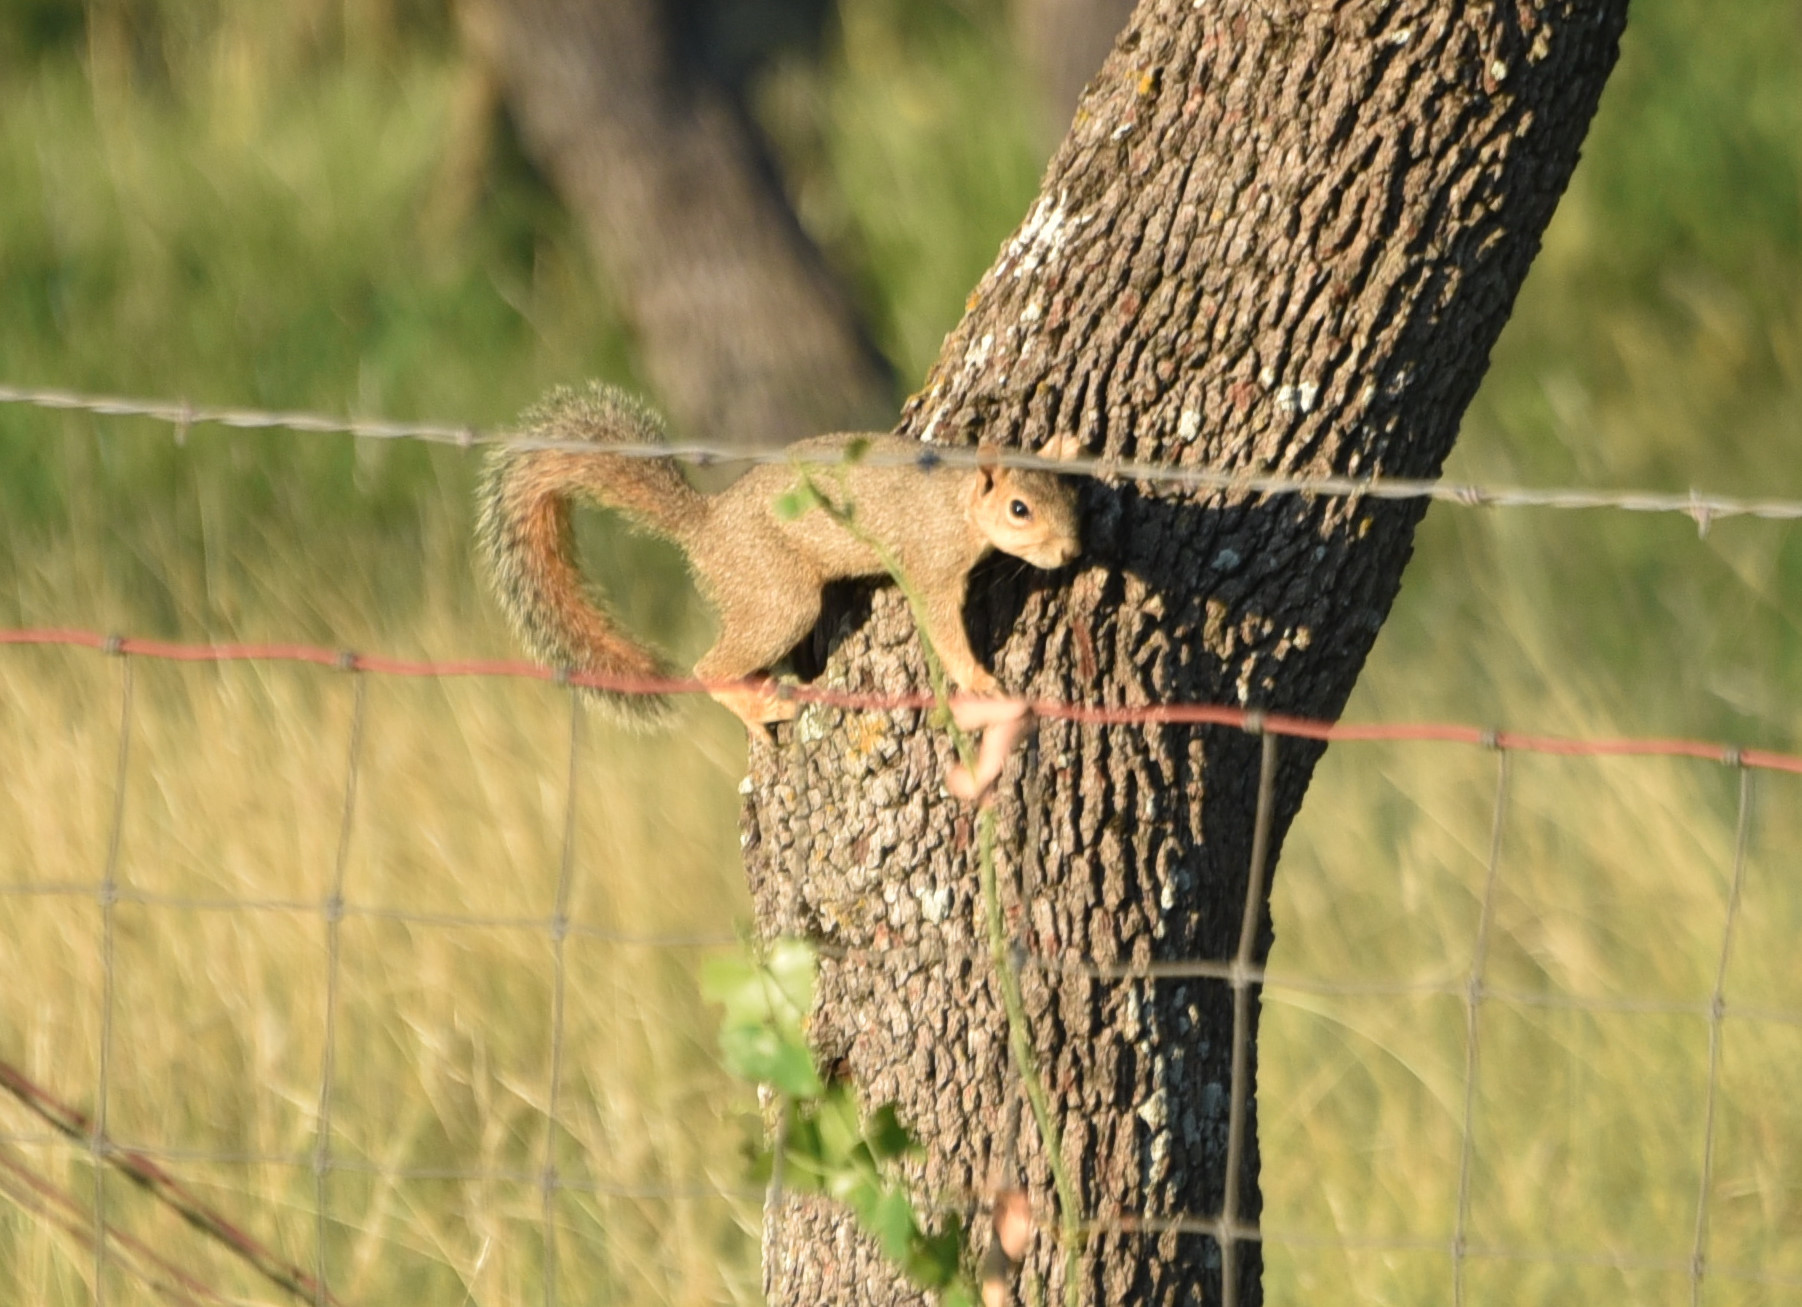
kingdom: Animalia
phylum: Chordata
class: Mammalia
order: Rodentia
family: Sciuridae
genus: Sciurus
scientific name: Sciurus niger
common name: Fox squirrel
